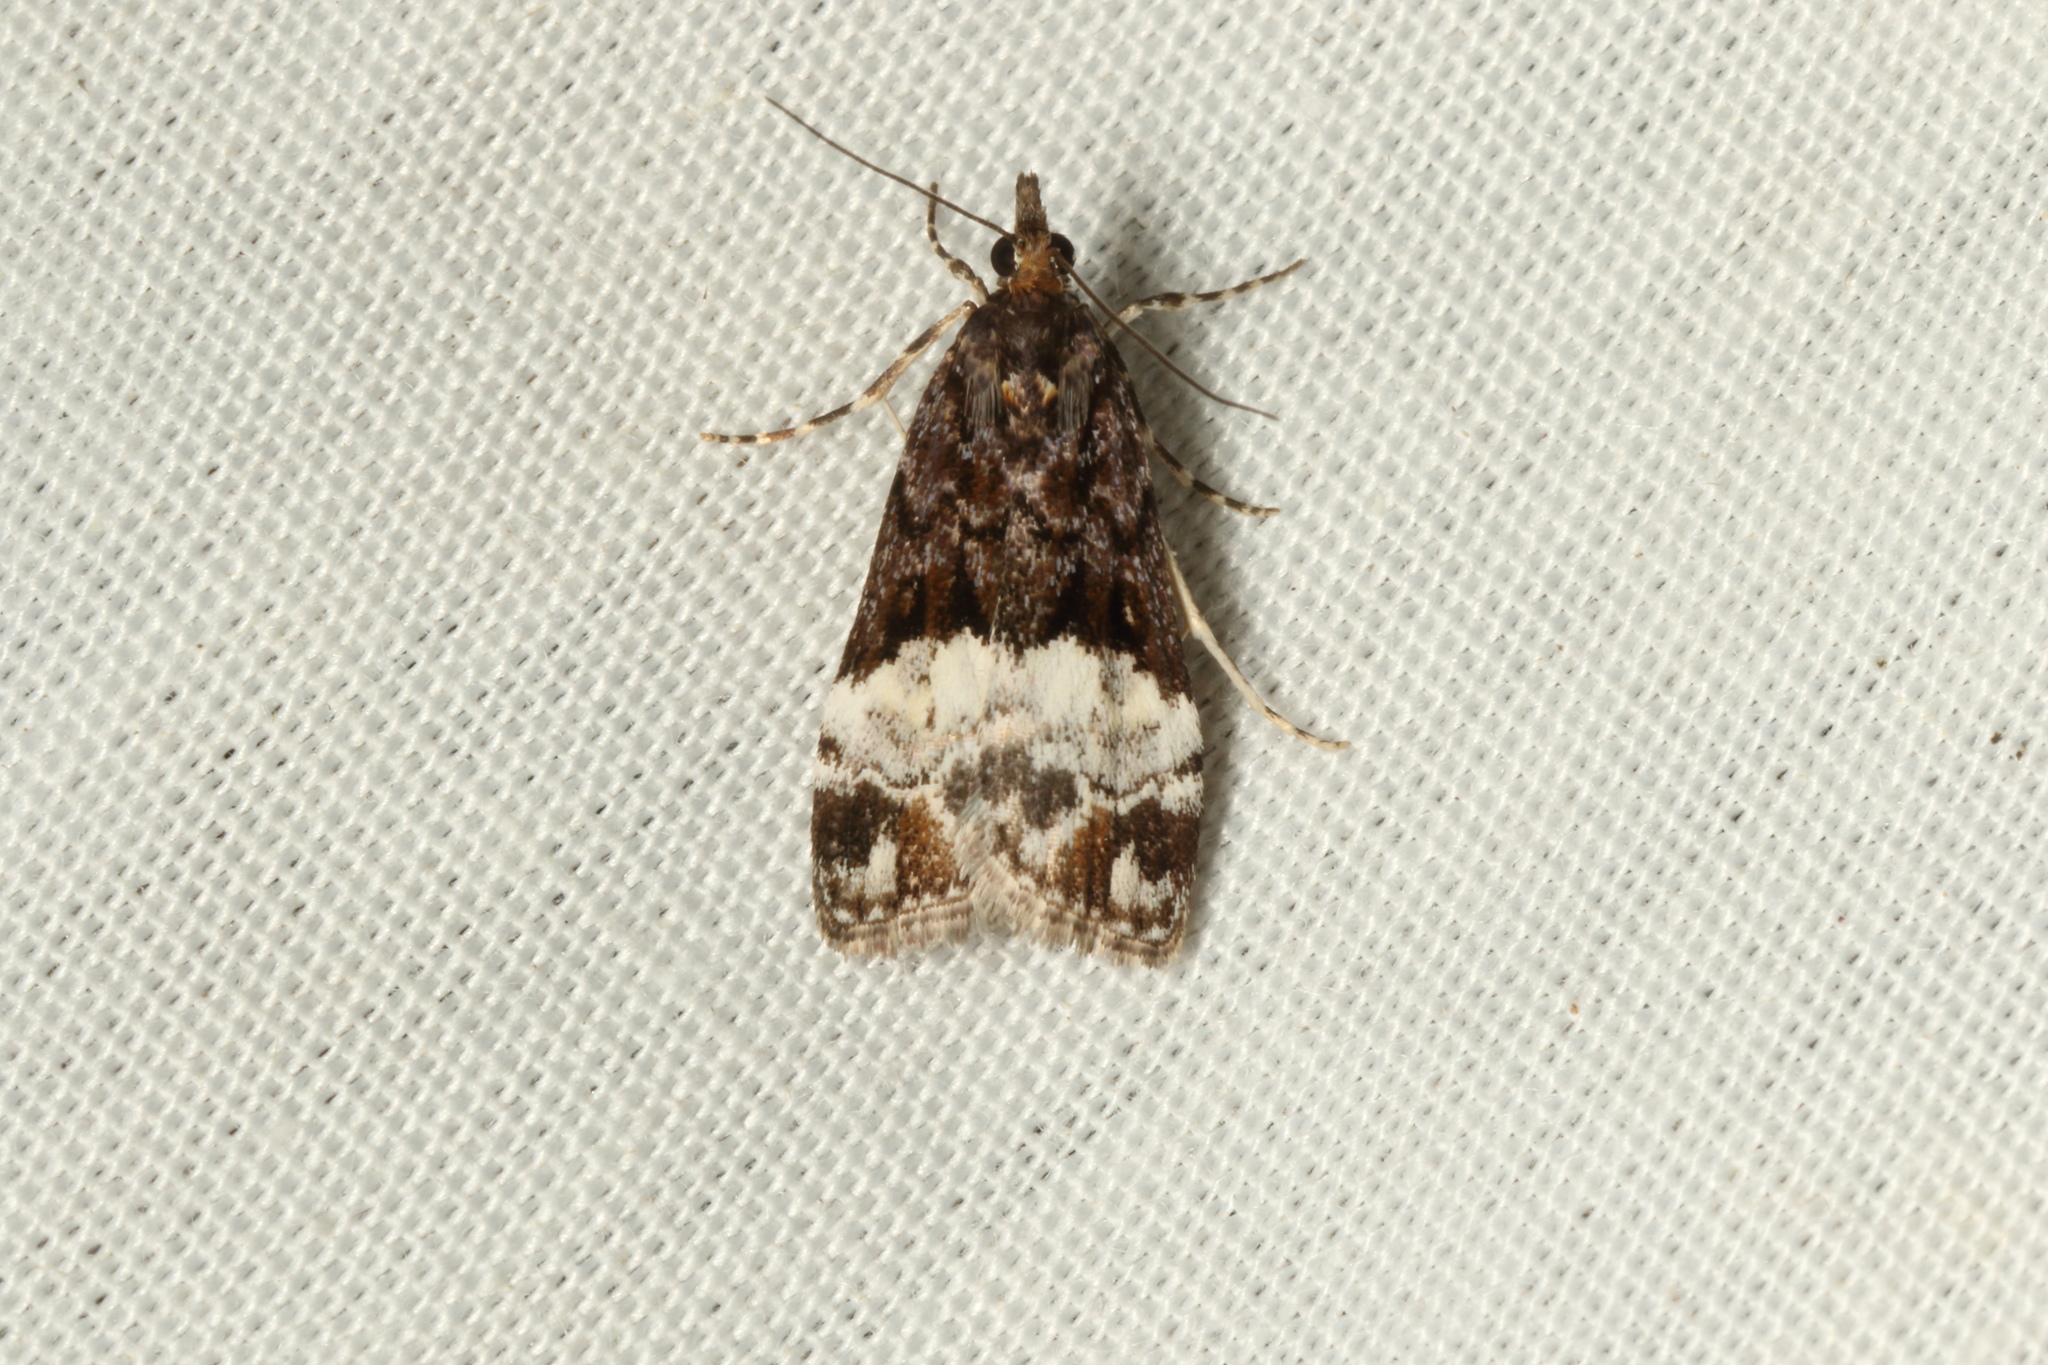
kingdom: Animalia
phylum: Arthropoda
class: Insecta
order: Lepidoptera
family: Crambidae
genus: Scoparia
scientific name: Scoparia minusculalis
